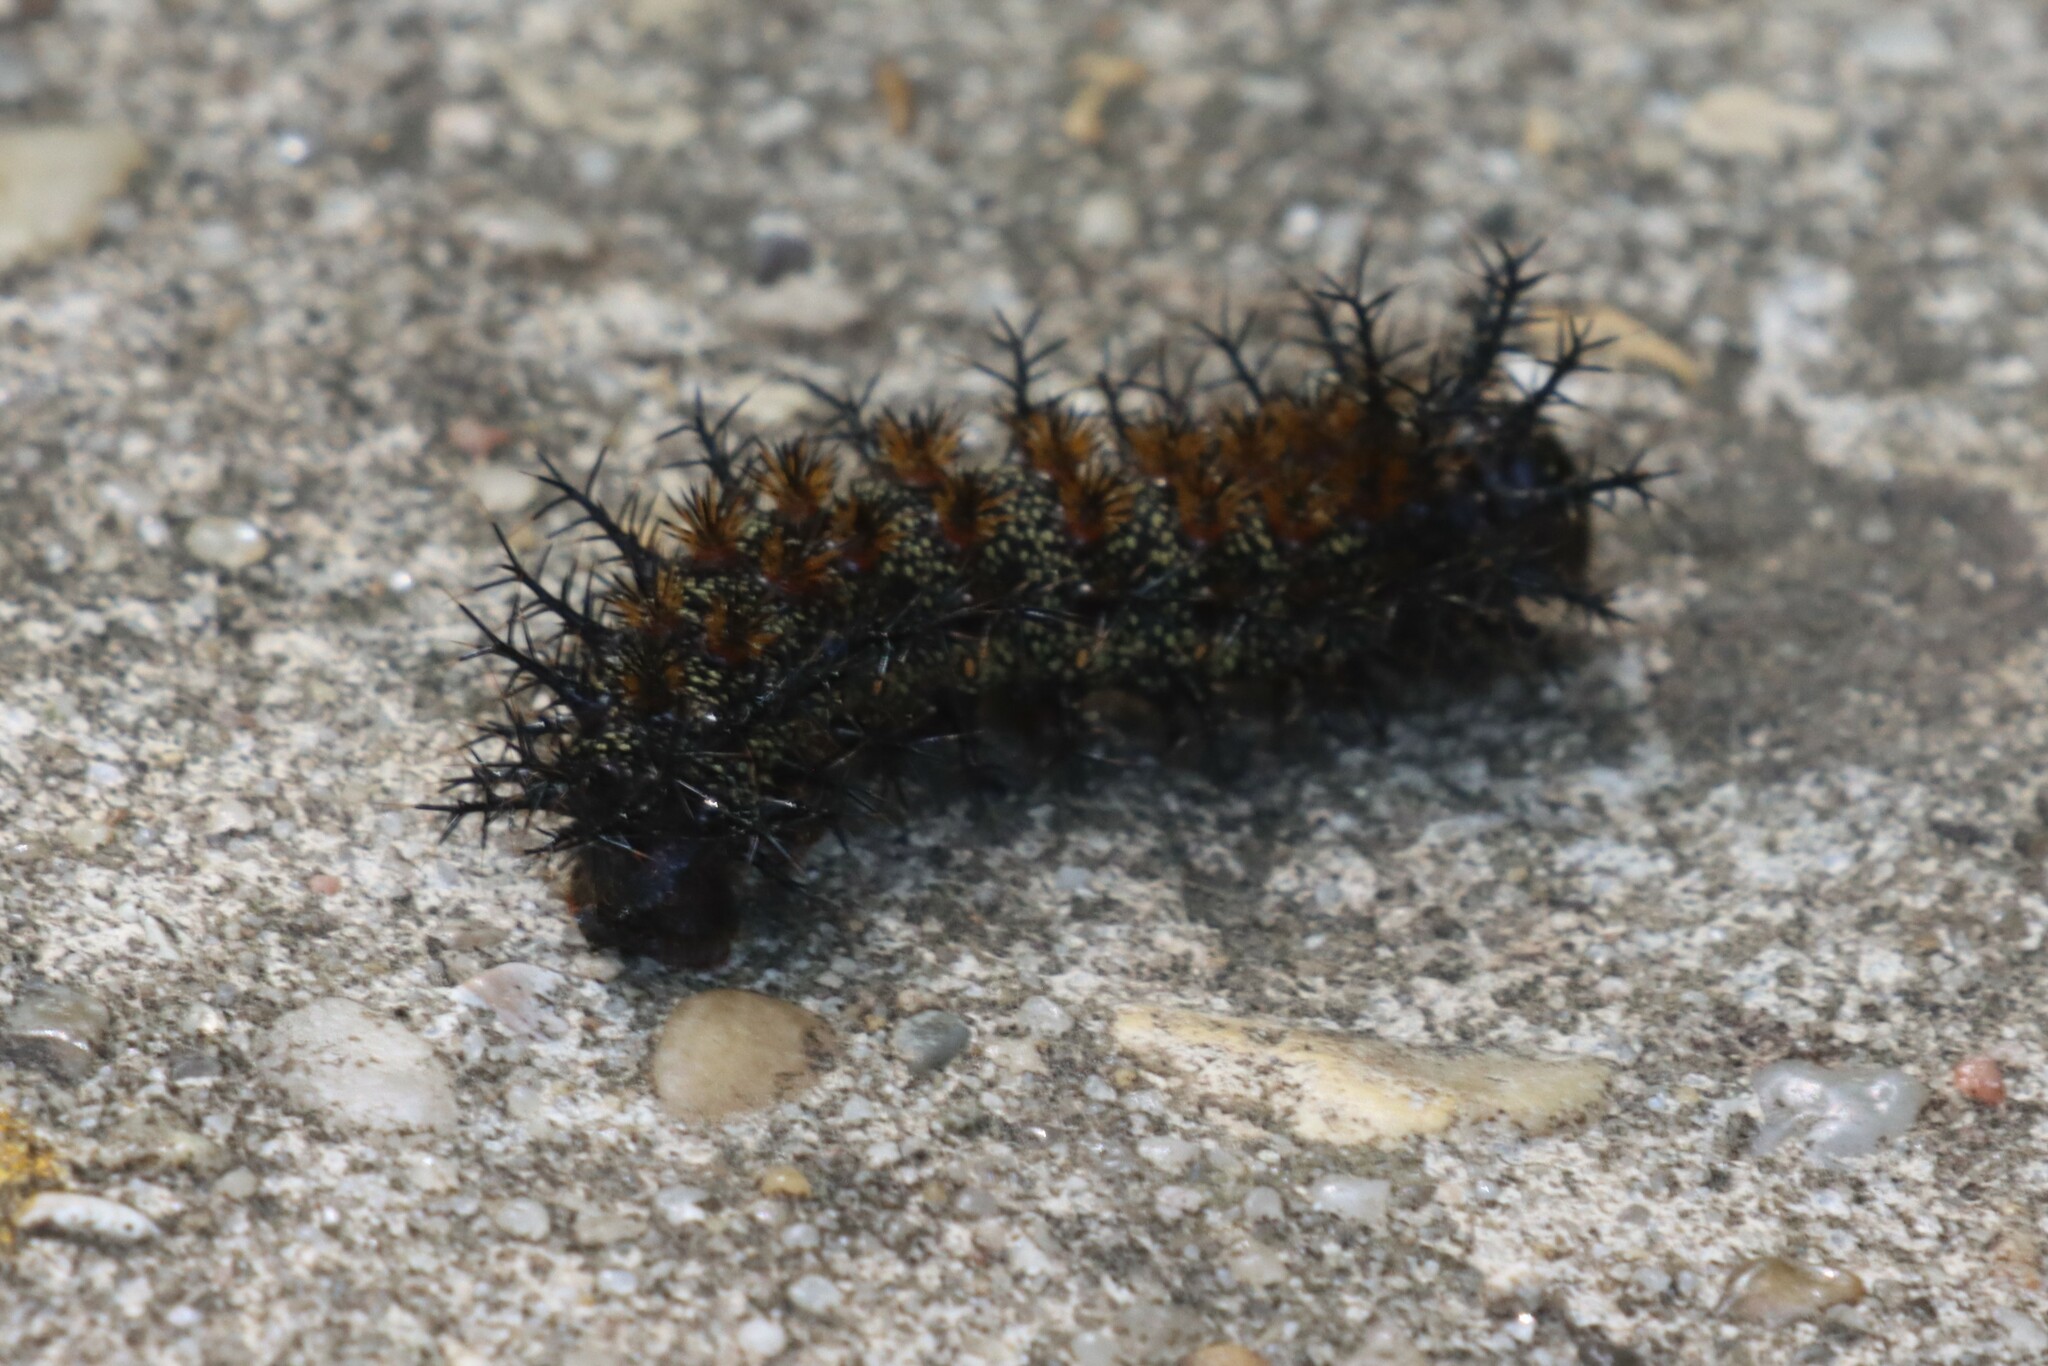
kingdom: Animalia
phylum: Arthropoda
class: Insecta
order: Lepidoptera
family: Saturniidae
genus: Hemileuca
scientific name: Hemileuca maia
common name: Eastern buckmoth
